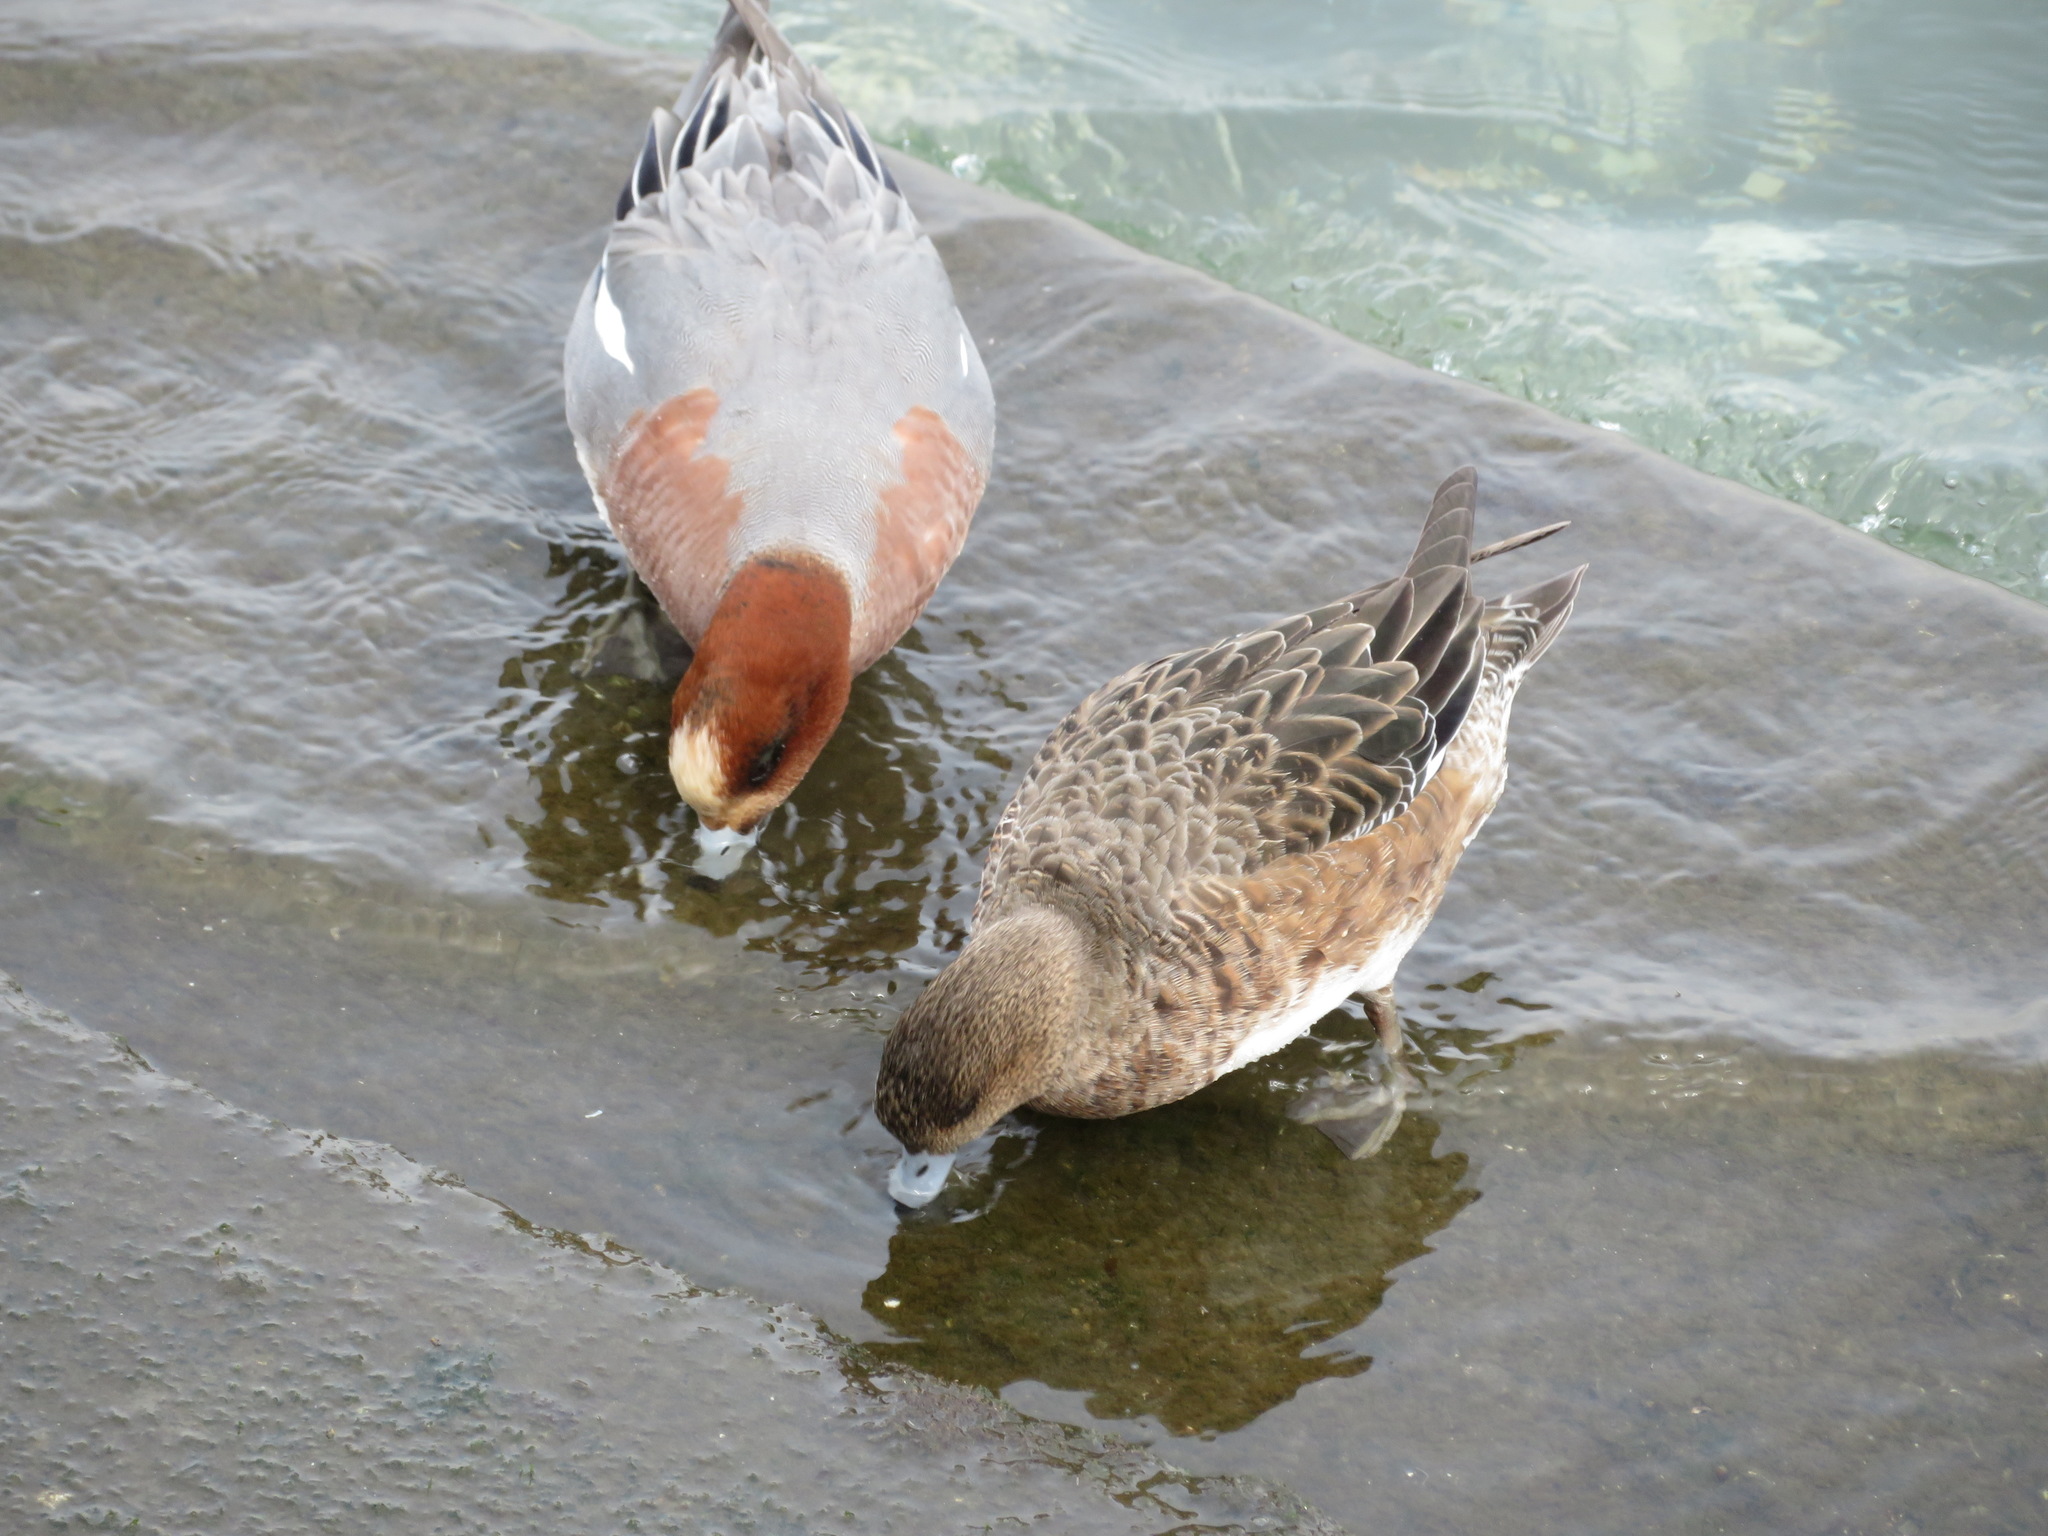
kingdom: Animalia
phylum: Chordata
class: Aves
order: Anseriformes
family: Anatidae
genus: Mareca
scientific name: Mareca penelope
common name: Eurasian wigeon
